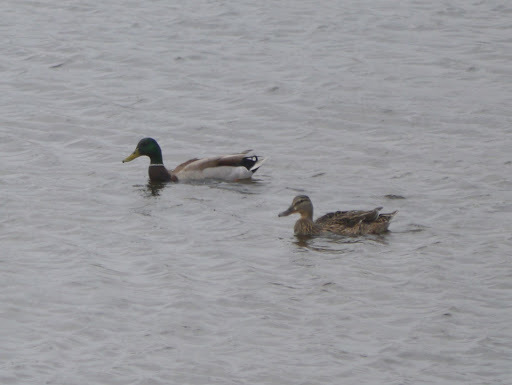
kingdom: Animalia
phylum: Chordata
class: Aves
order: Anseriformes
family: Anatidae
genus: Anas
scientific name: Anas platyrhynchos
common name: Mallard
